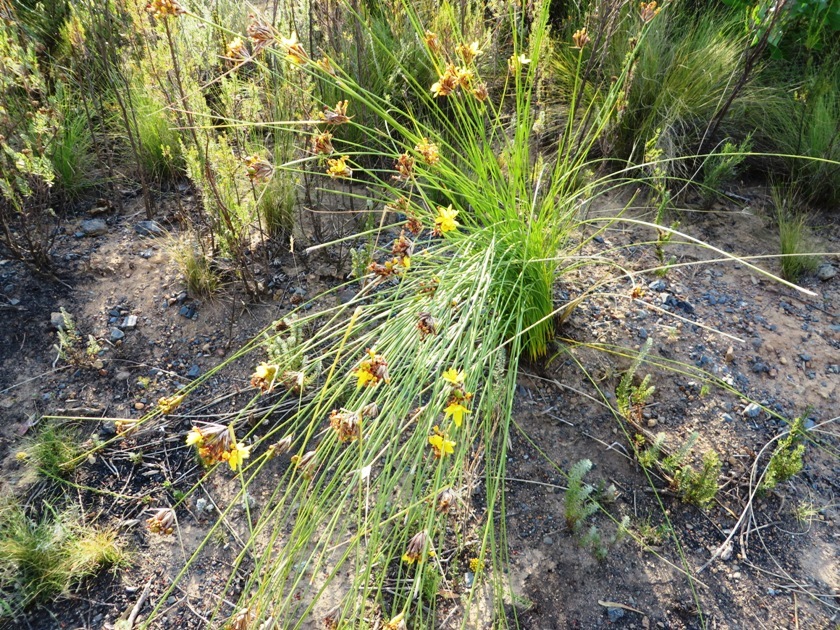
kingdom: Plantae
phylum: Tracheophyta
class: Liliopsida
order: Asparagales
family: Iridaceae
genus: Bobartia
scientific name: Bobartia indica
